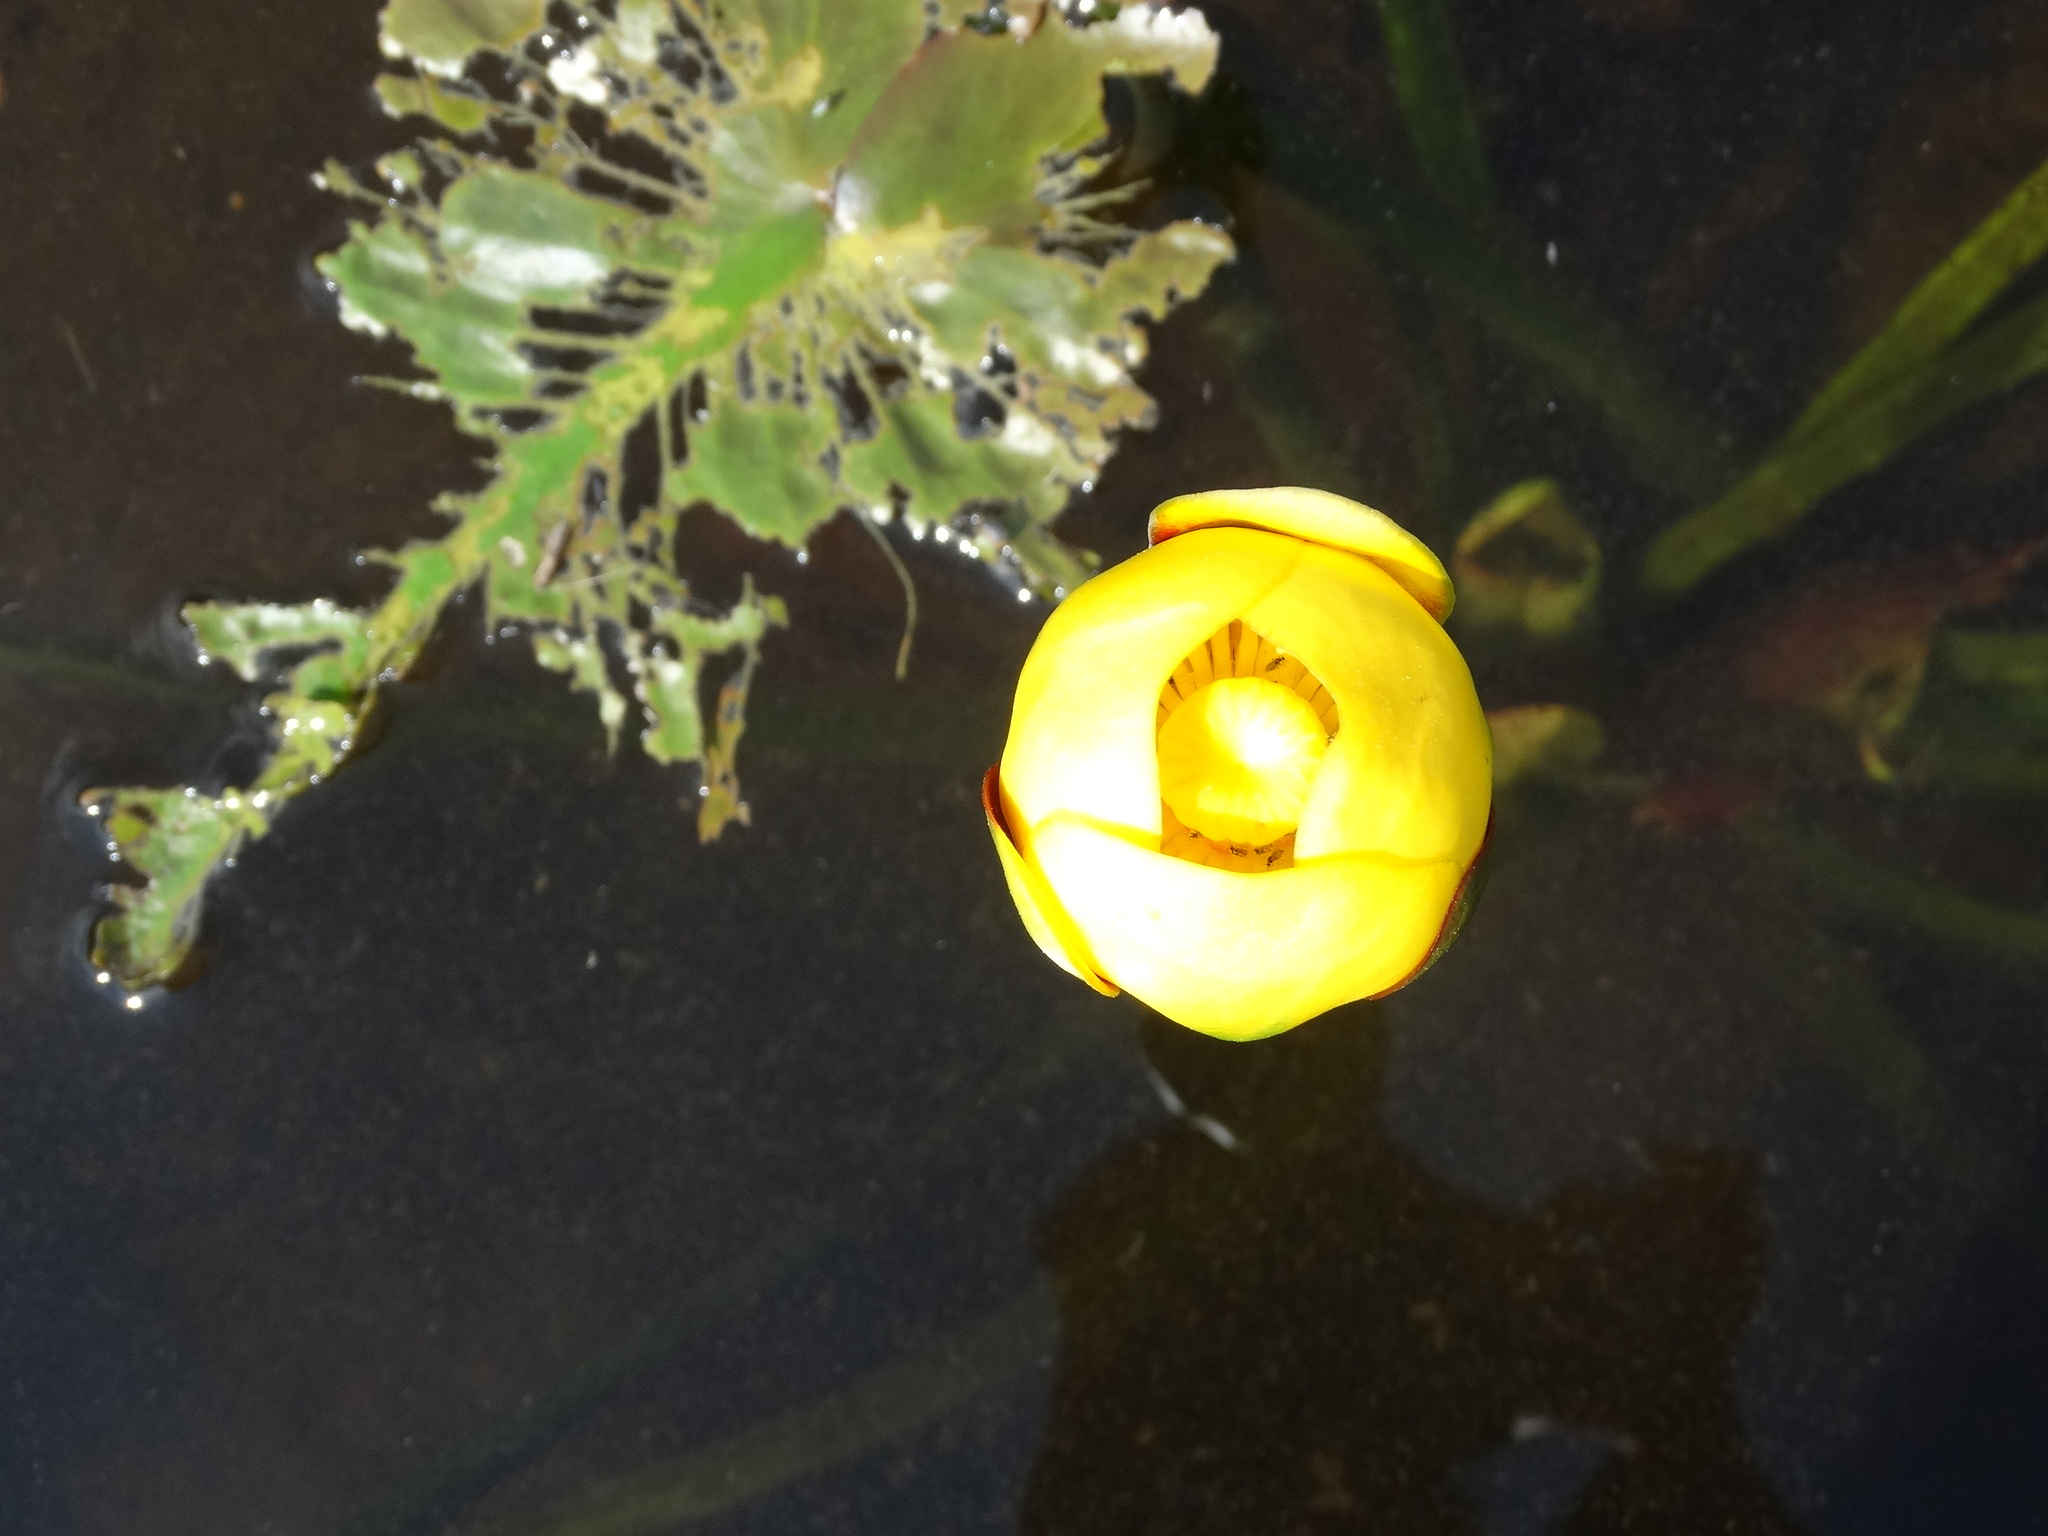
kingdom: Plantae
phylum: Tracheophyta
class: Magnoliopsida
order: Nymphaeales
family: Nymphaeaceae
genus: Nuphar
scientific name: Nuphar variegata
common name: Beaver-root
